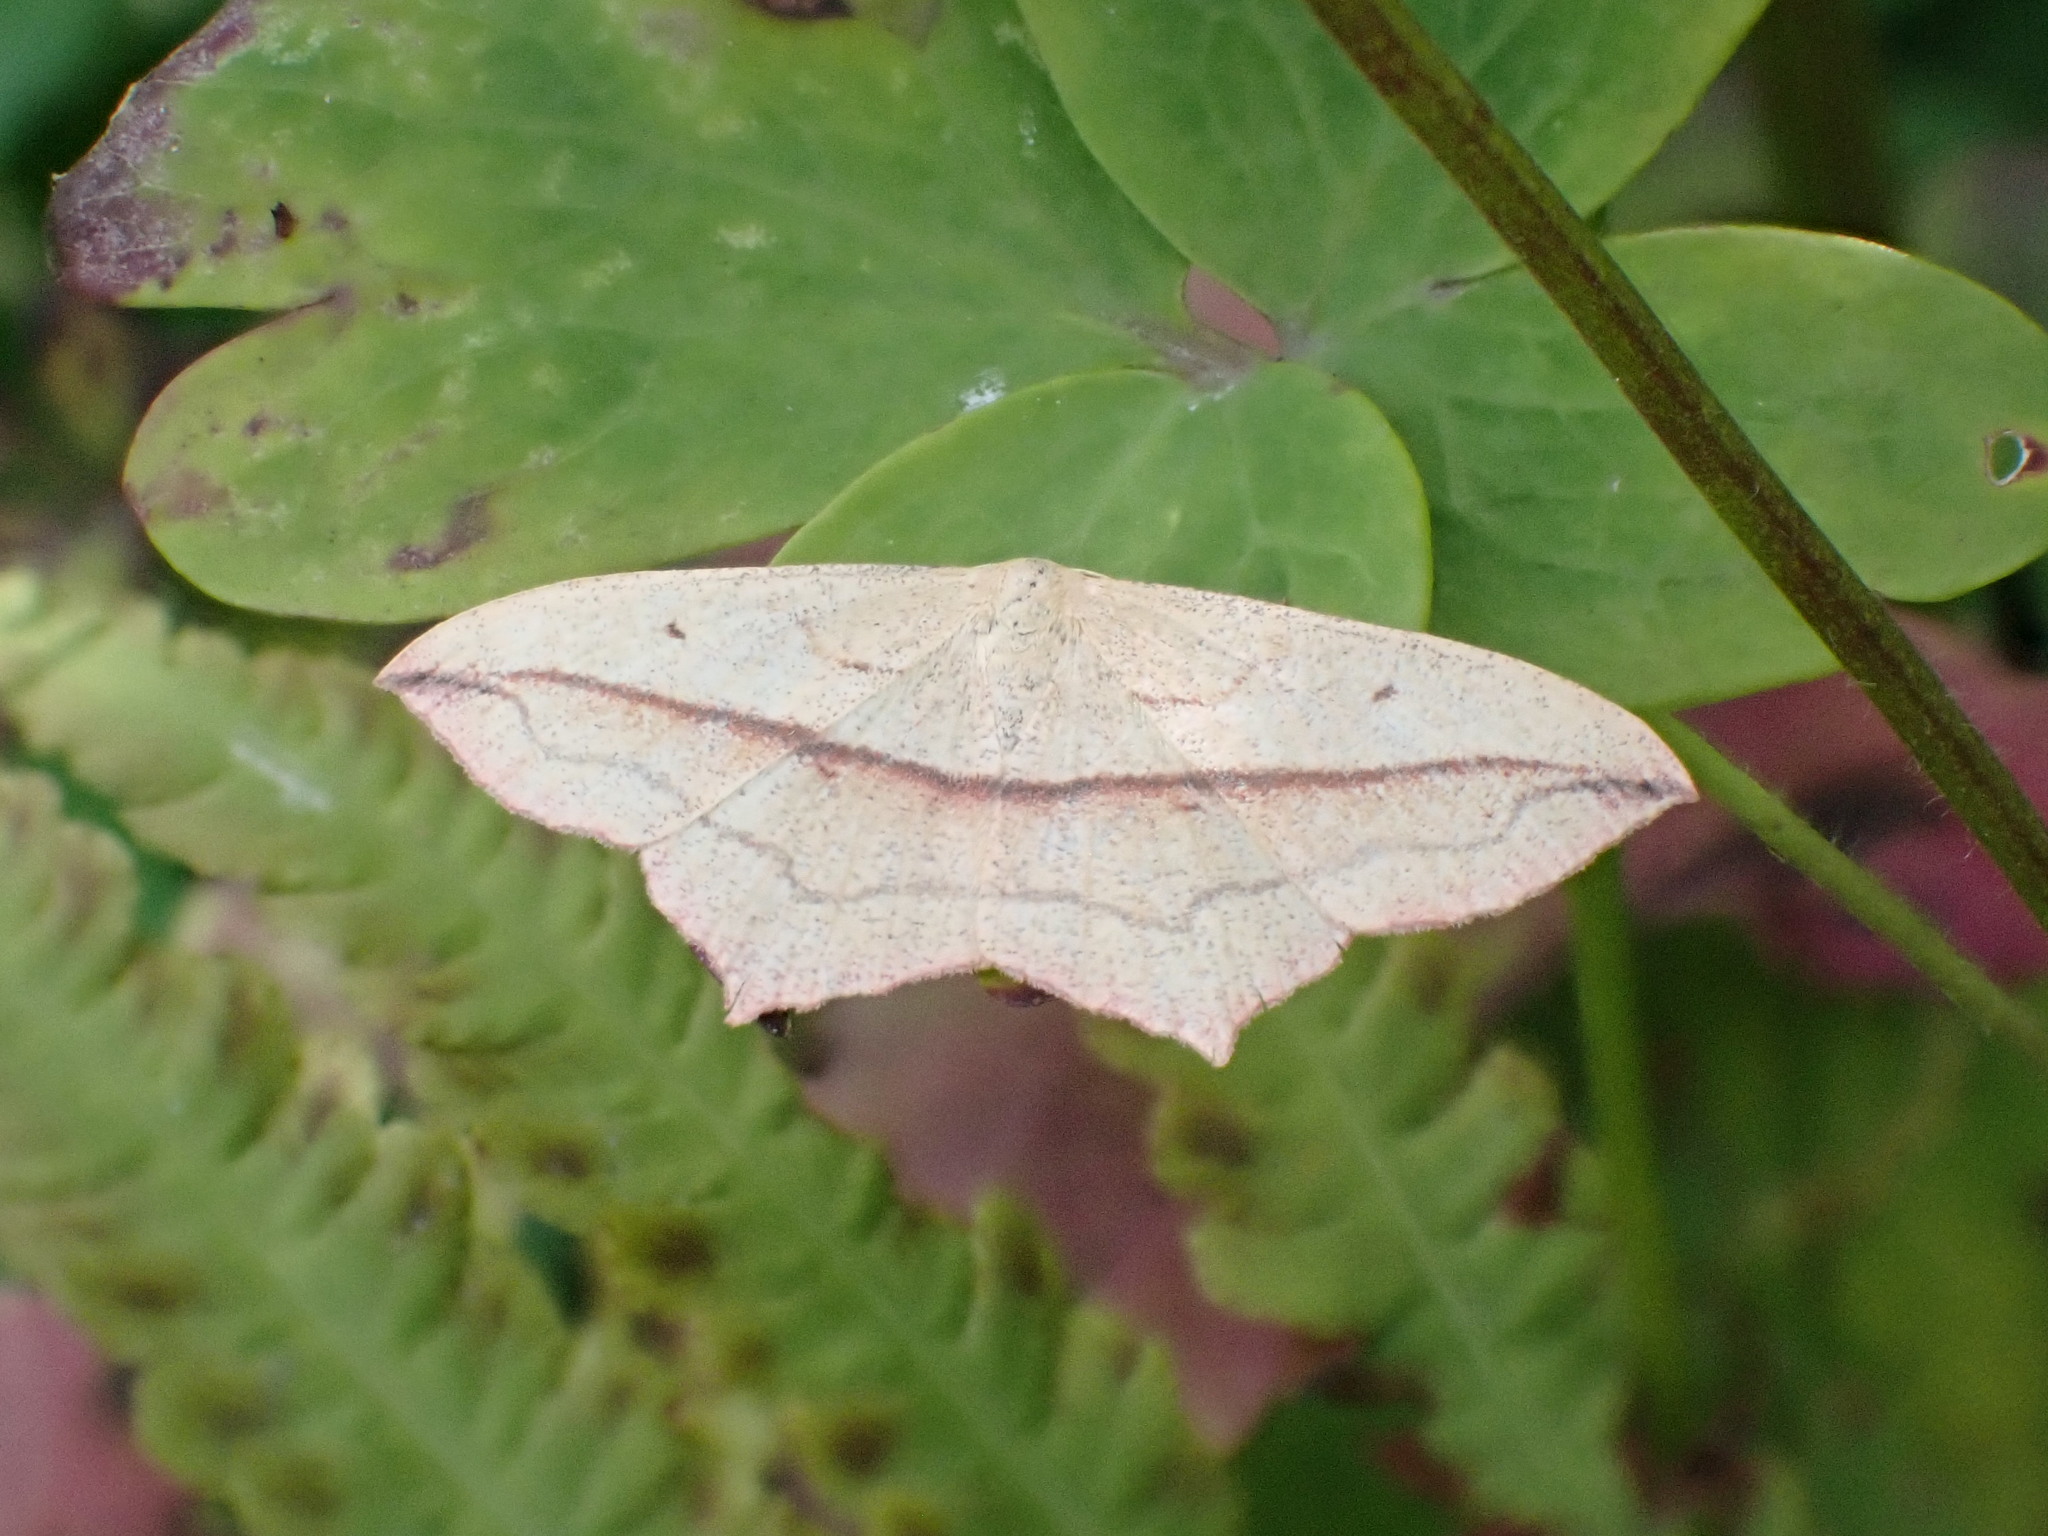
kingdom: Animalia
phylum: Arthropoda
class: Insecta
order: Lepidoptera
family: Geometridae
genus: Timandra
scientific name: Timandra comae
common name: Blood-vein
